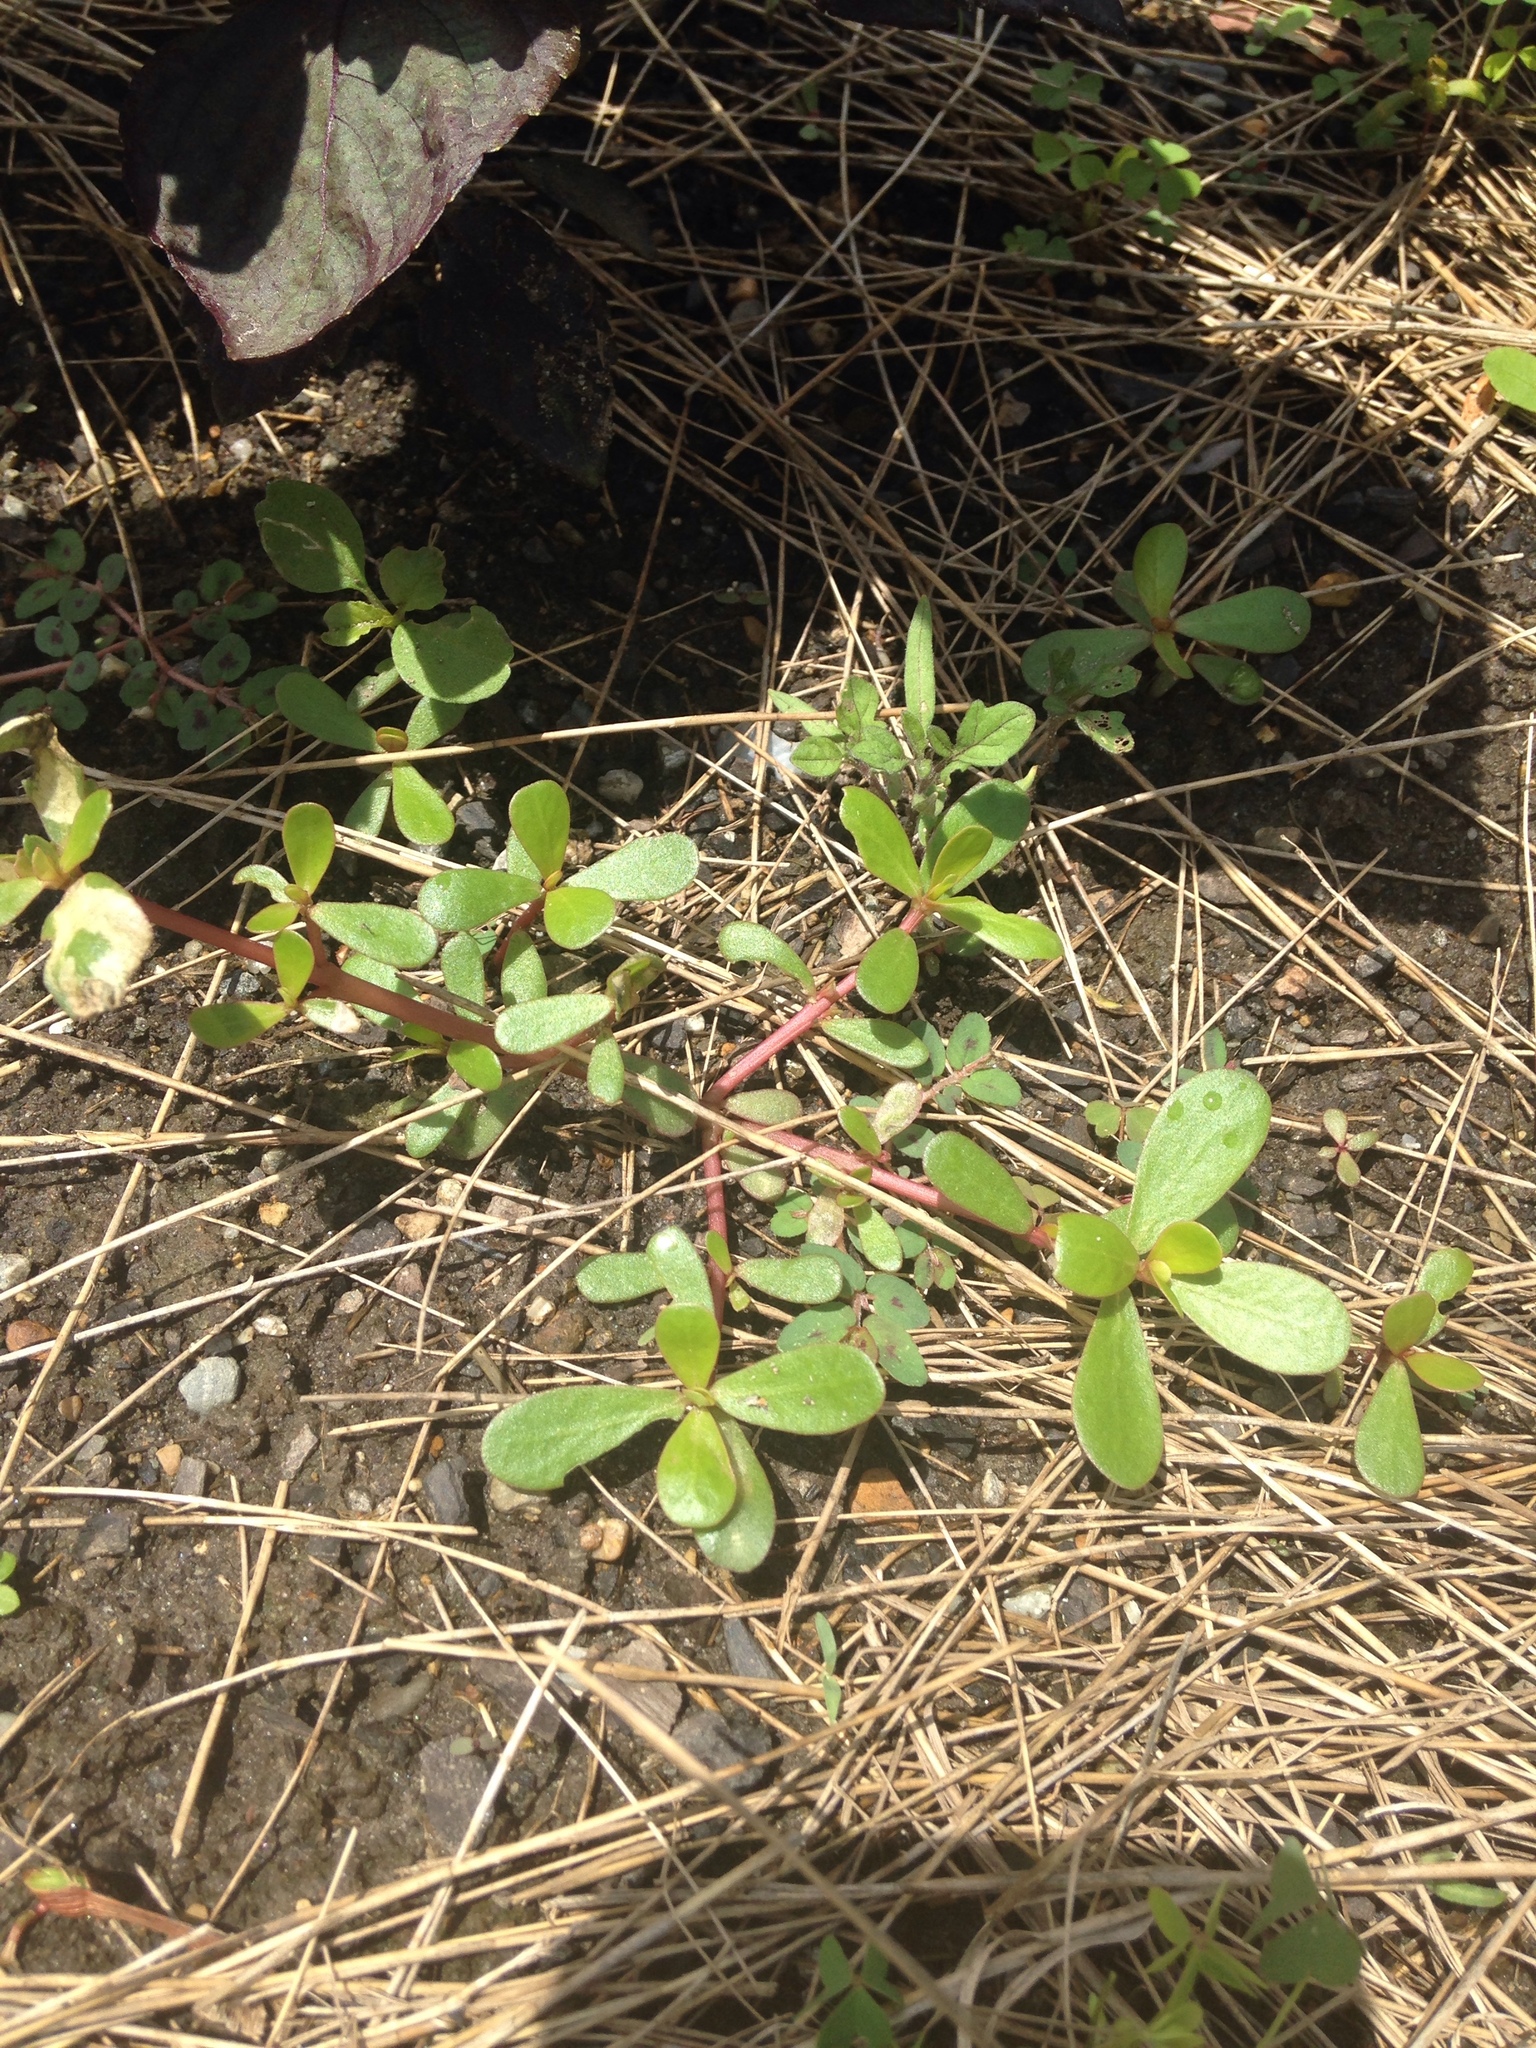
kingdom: Plantae
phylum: Tracheophyta
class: Magnoliopsida
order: Caryophyllales
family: Portulacaceae
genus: Portulaca
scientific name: Portulaca oleracea
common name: Common purslane
